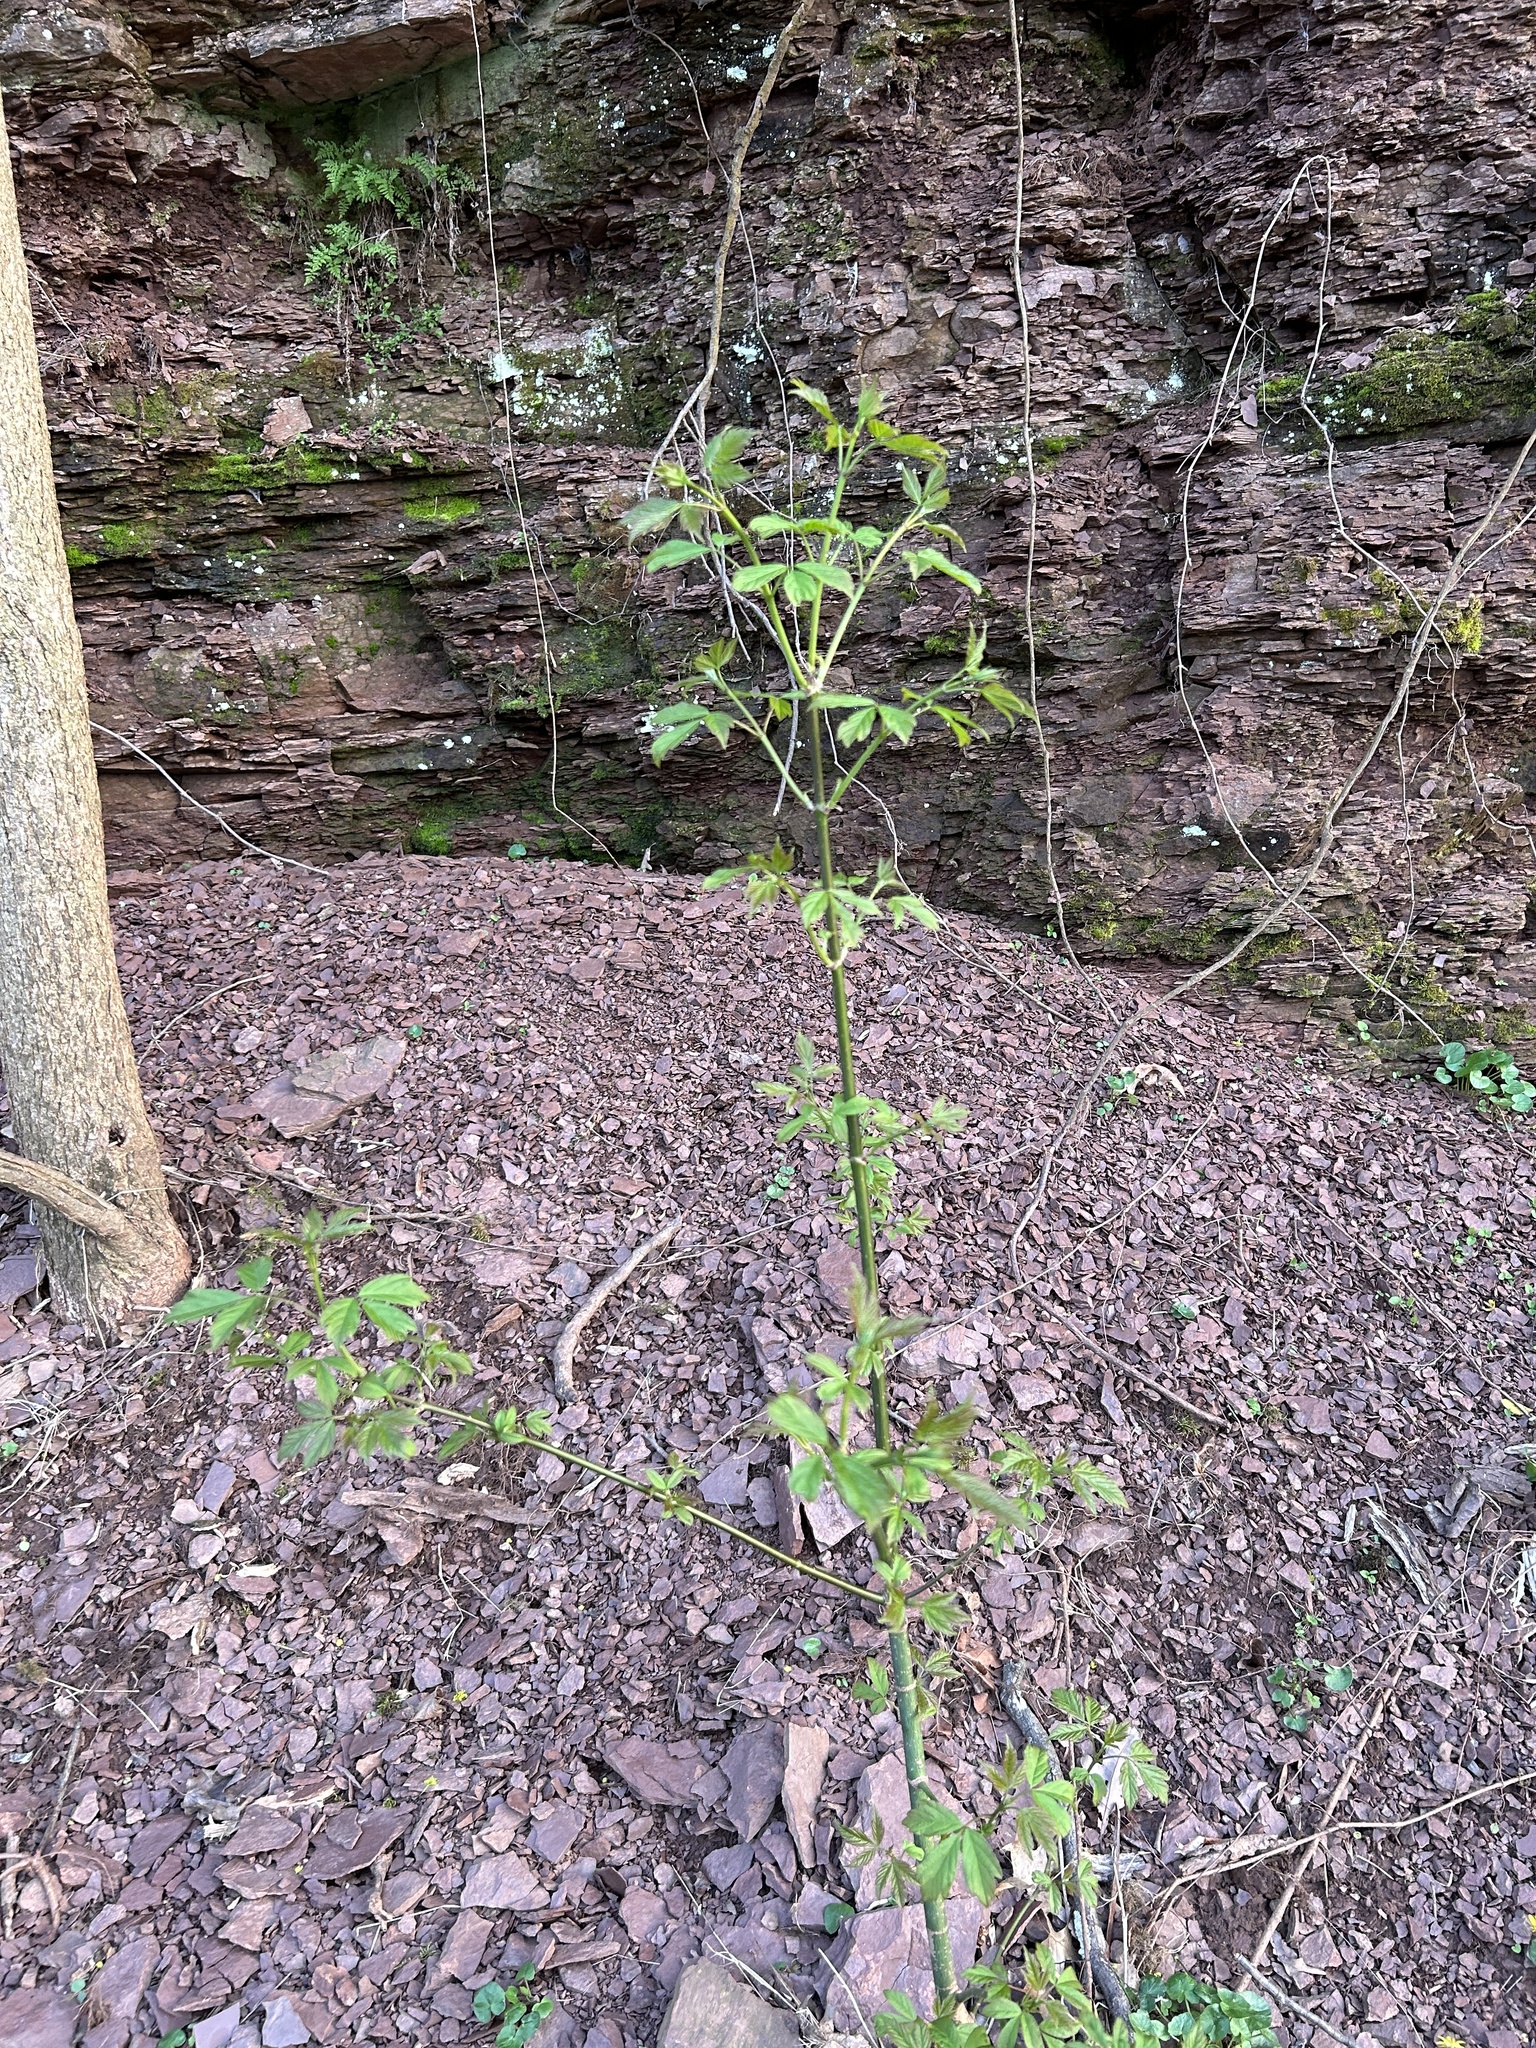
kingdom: Plantae
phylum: Tracheophyta
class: Magnoliopsida
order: Sapindales
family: Sapindaceae
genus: Acer
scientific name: Acer negundo
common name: Ashleaf maple
